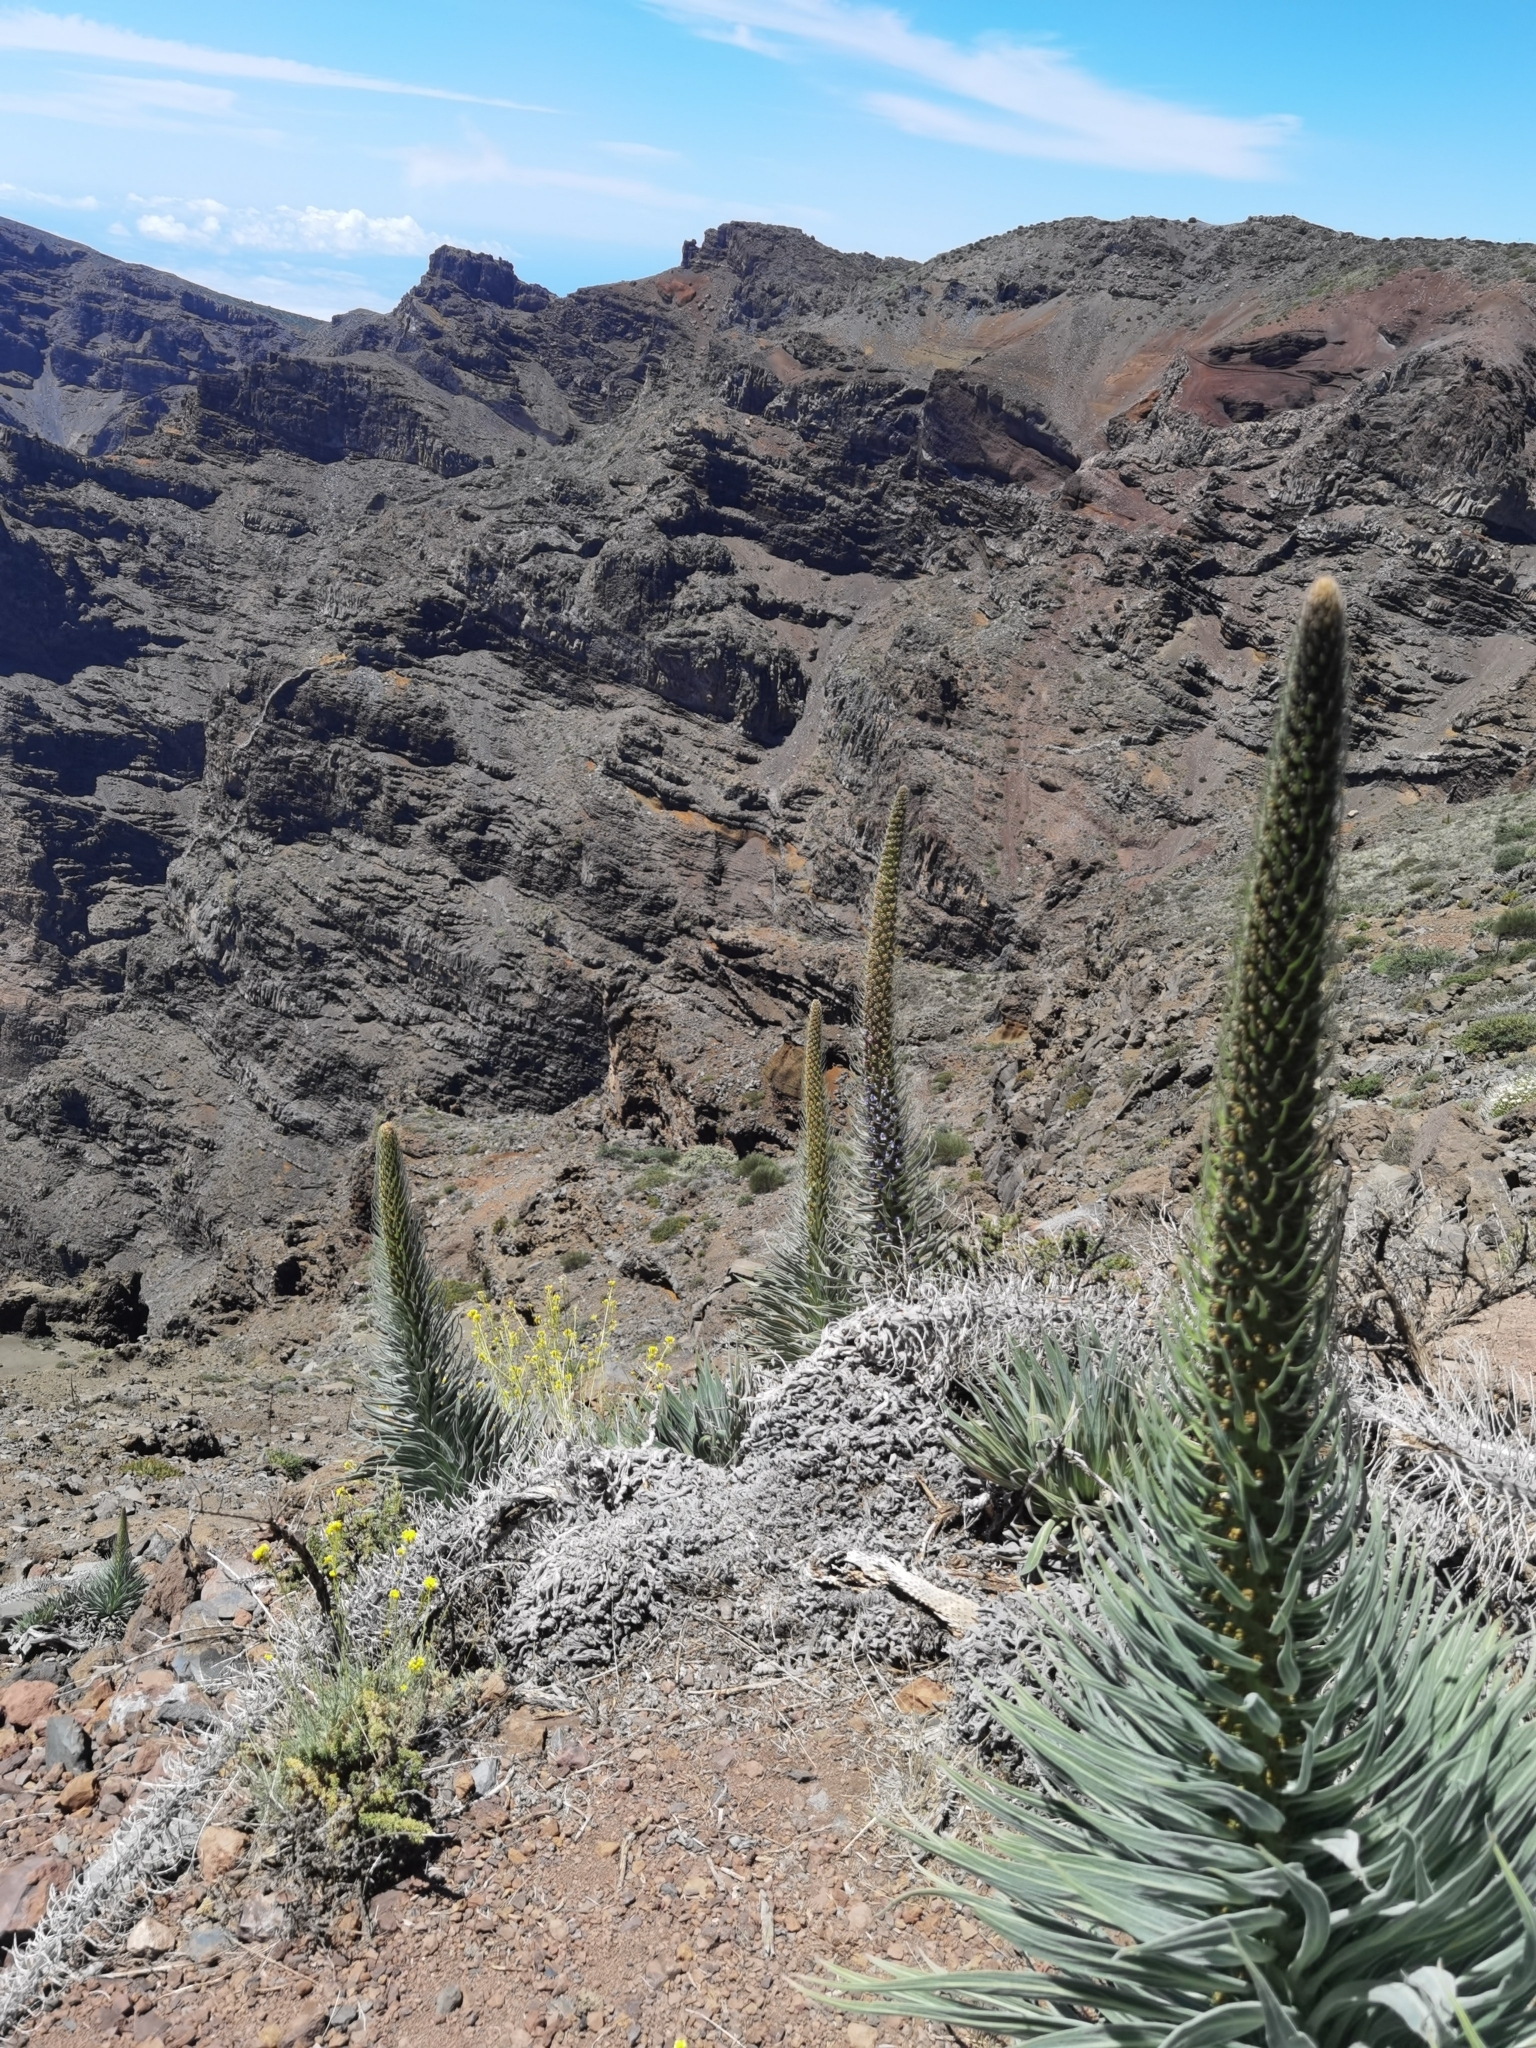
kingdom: Plantae
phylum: Tracheophyta
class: Magnoliopsida
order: Boraginales
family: Boraginaceae
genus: Echium
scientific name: Echium perezii
